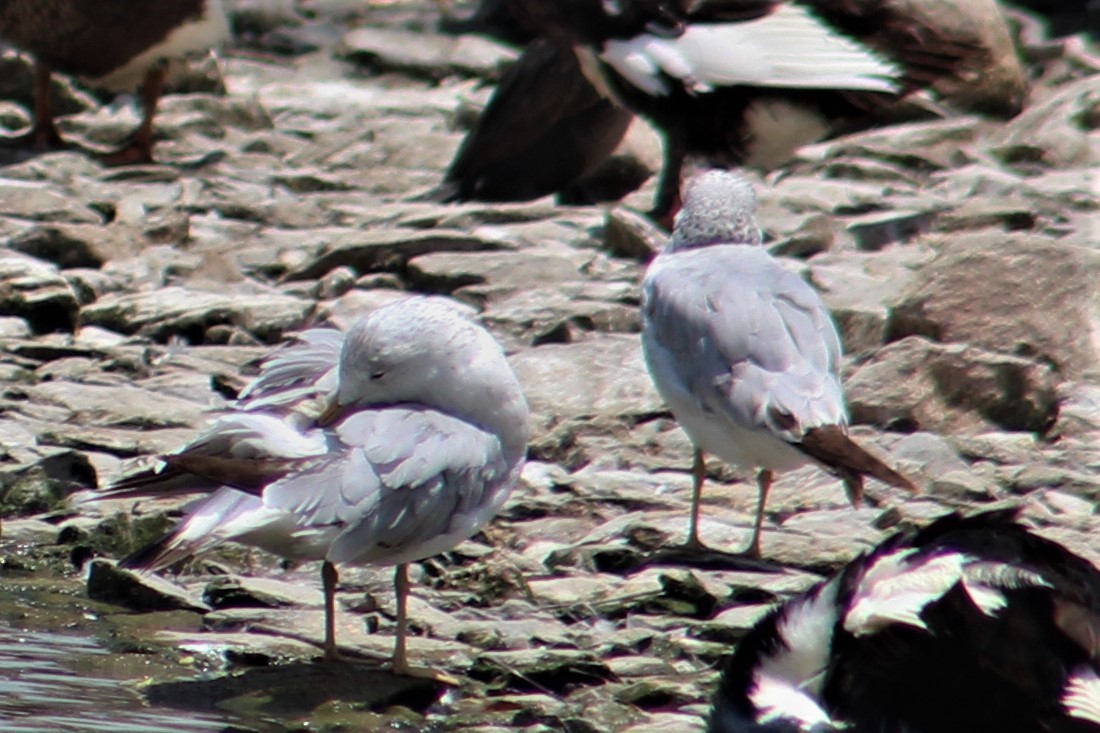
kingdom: Animalia
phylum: Chordata
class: Aves
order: Charadriiformes
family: Laridae
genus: Larus
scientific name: Larus delawarensis
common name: Ring-billed gull
